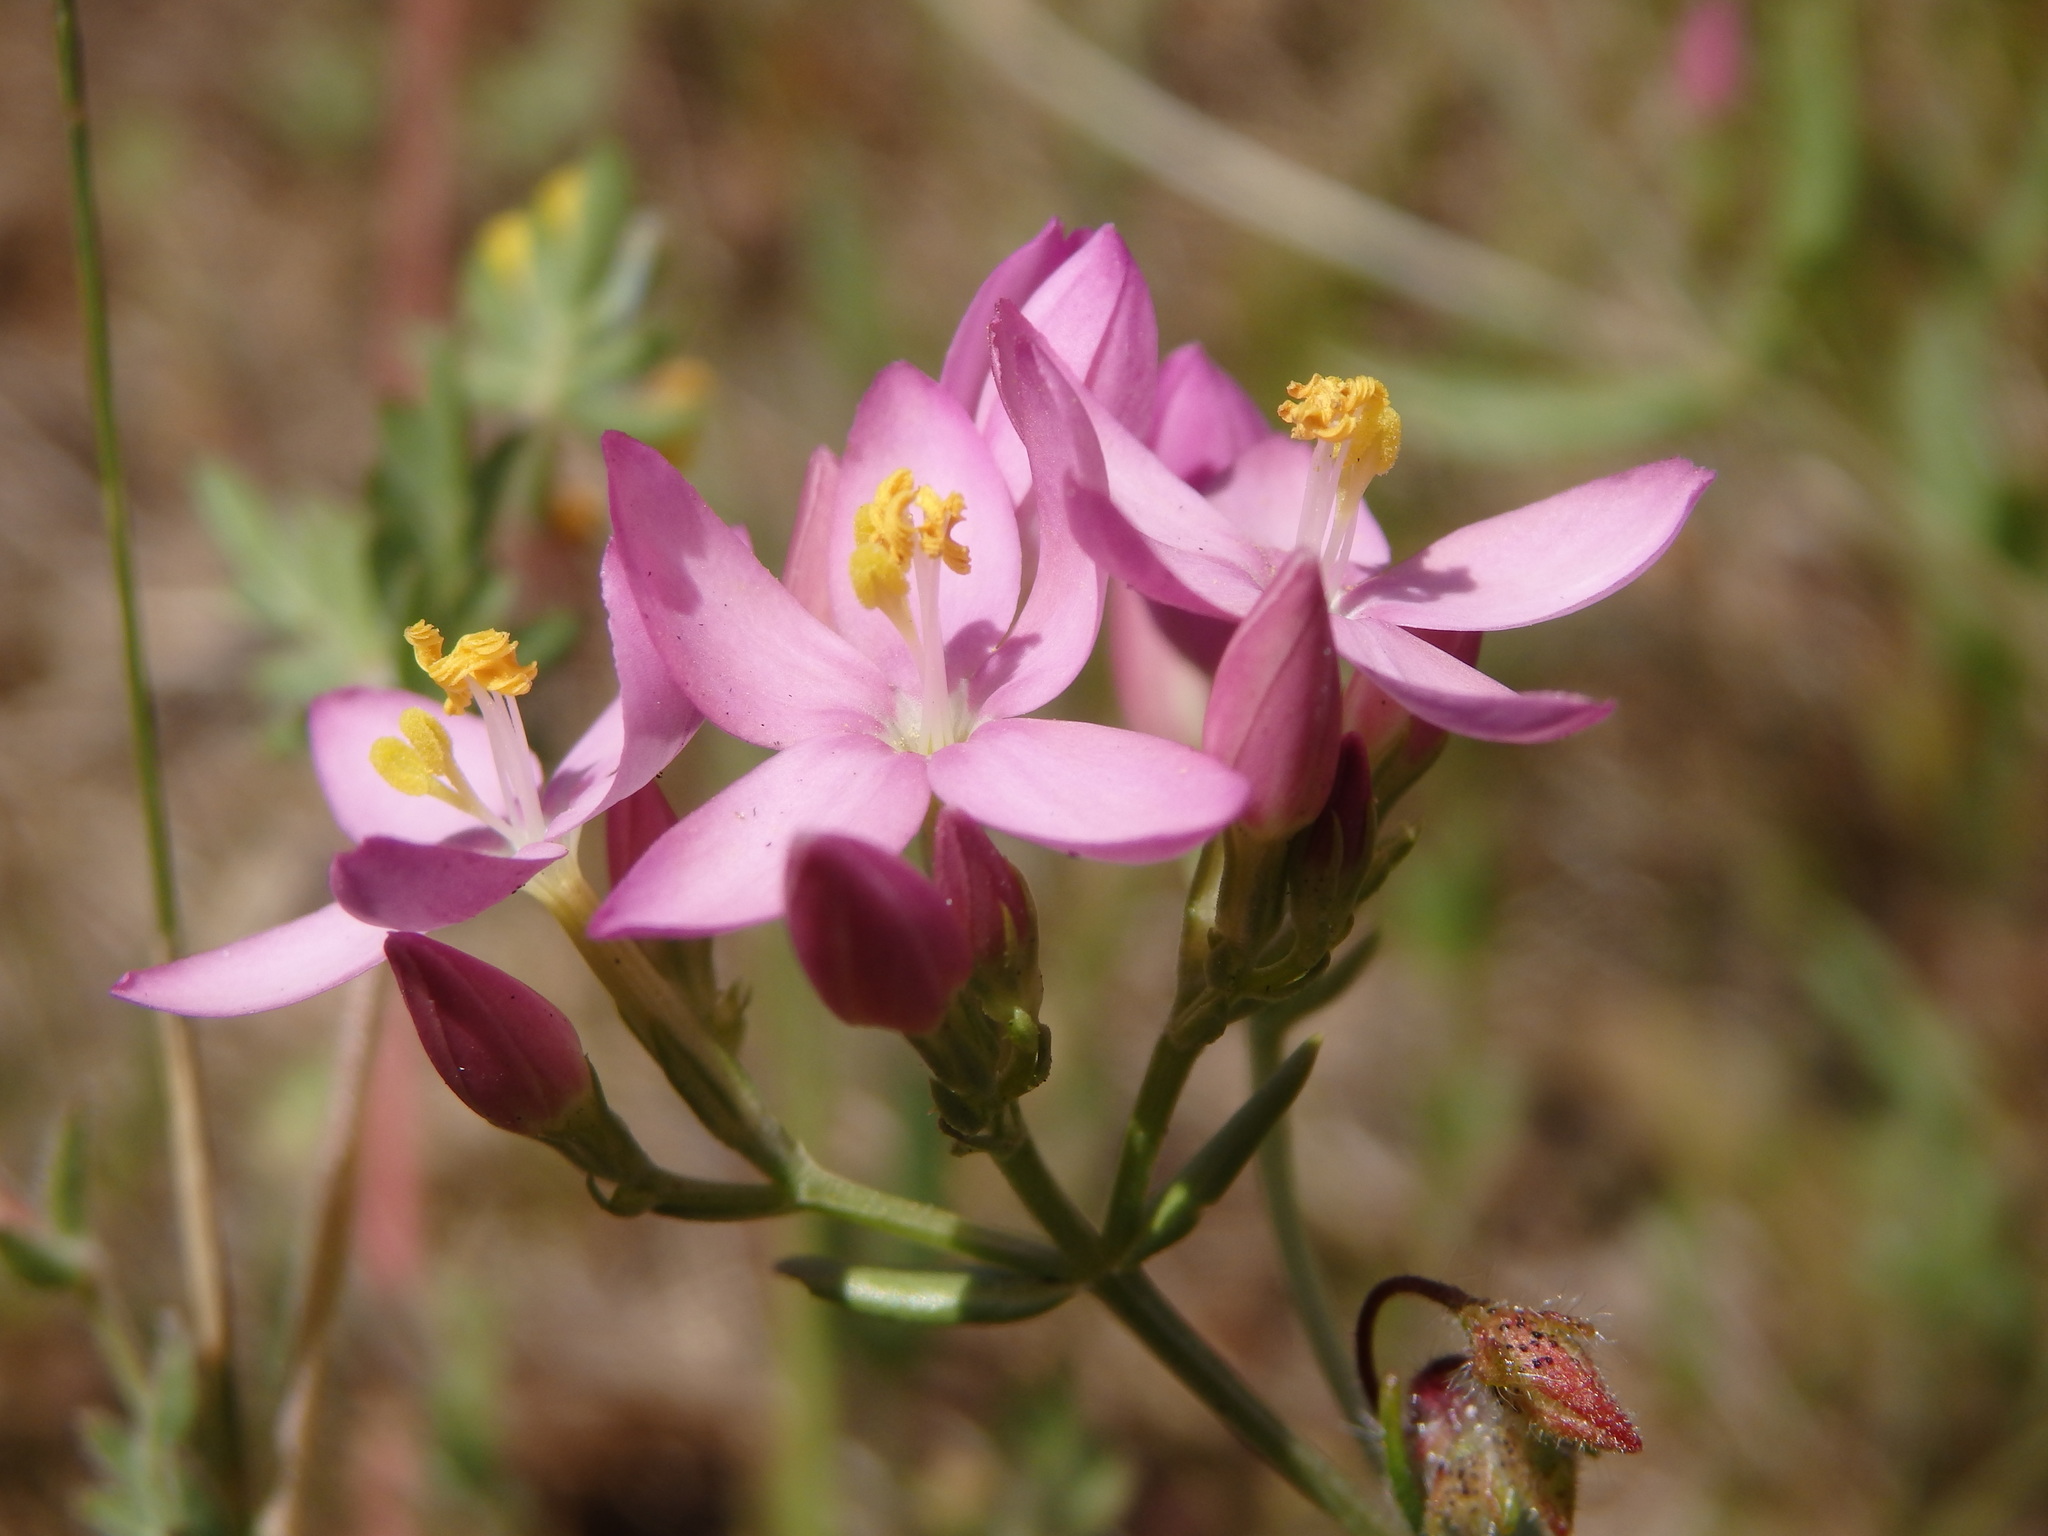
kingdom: Plantae
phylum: Tracheophyta
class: Magnoliopsida
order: Gentianales
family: Gentianaceae
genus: Centaurium
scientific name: Centaurium erythraea
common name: Common centaury
